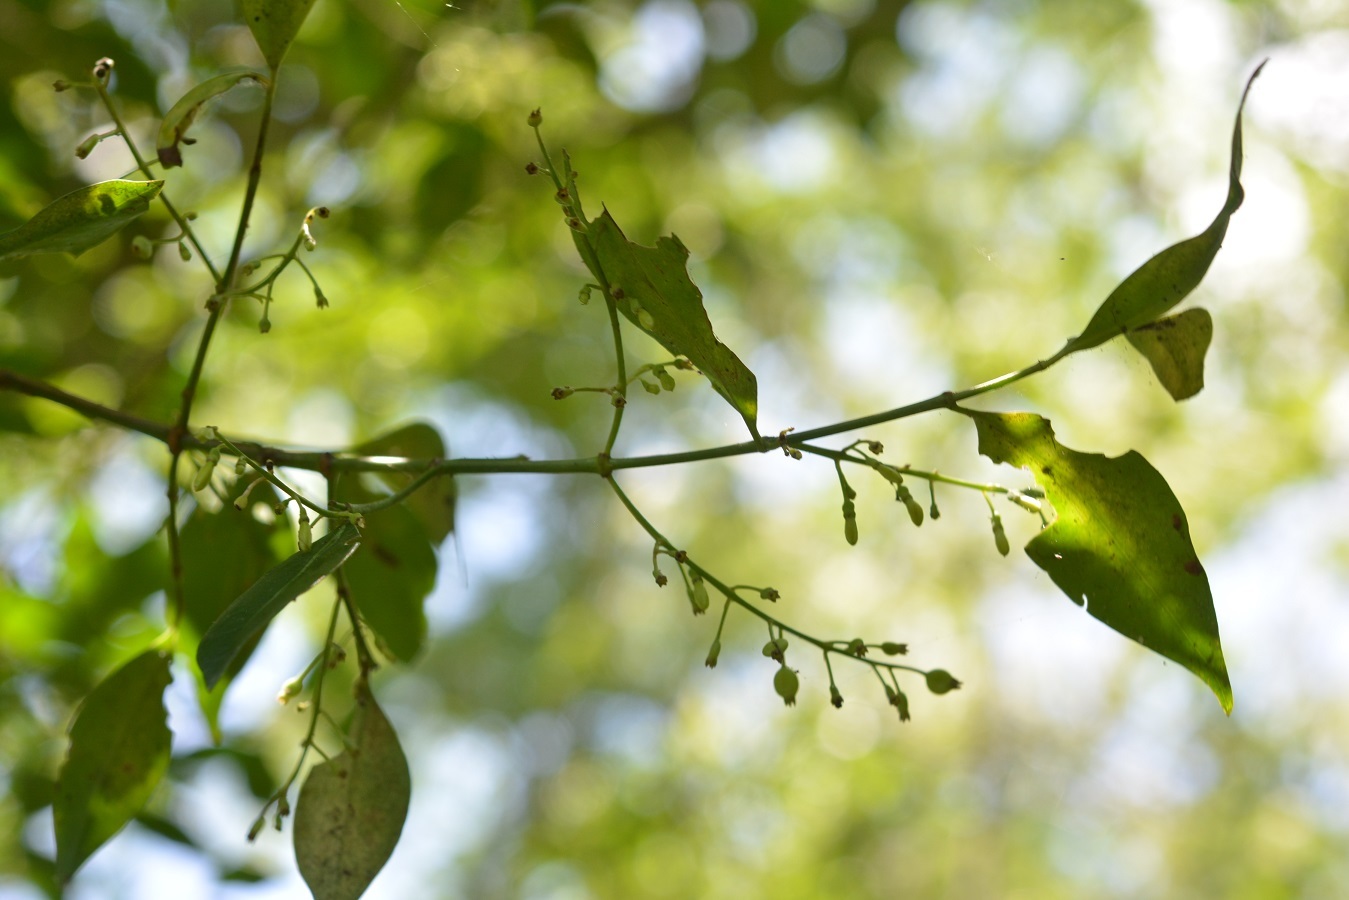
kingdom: Plantae
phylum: Tracheophyta
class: Magnoliopsida
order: Gentianales
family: Rubiaceae
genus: Chiococca
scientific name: Chiococca alba
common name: Snowberry
